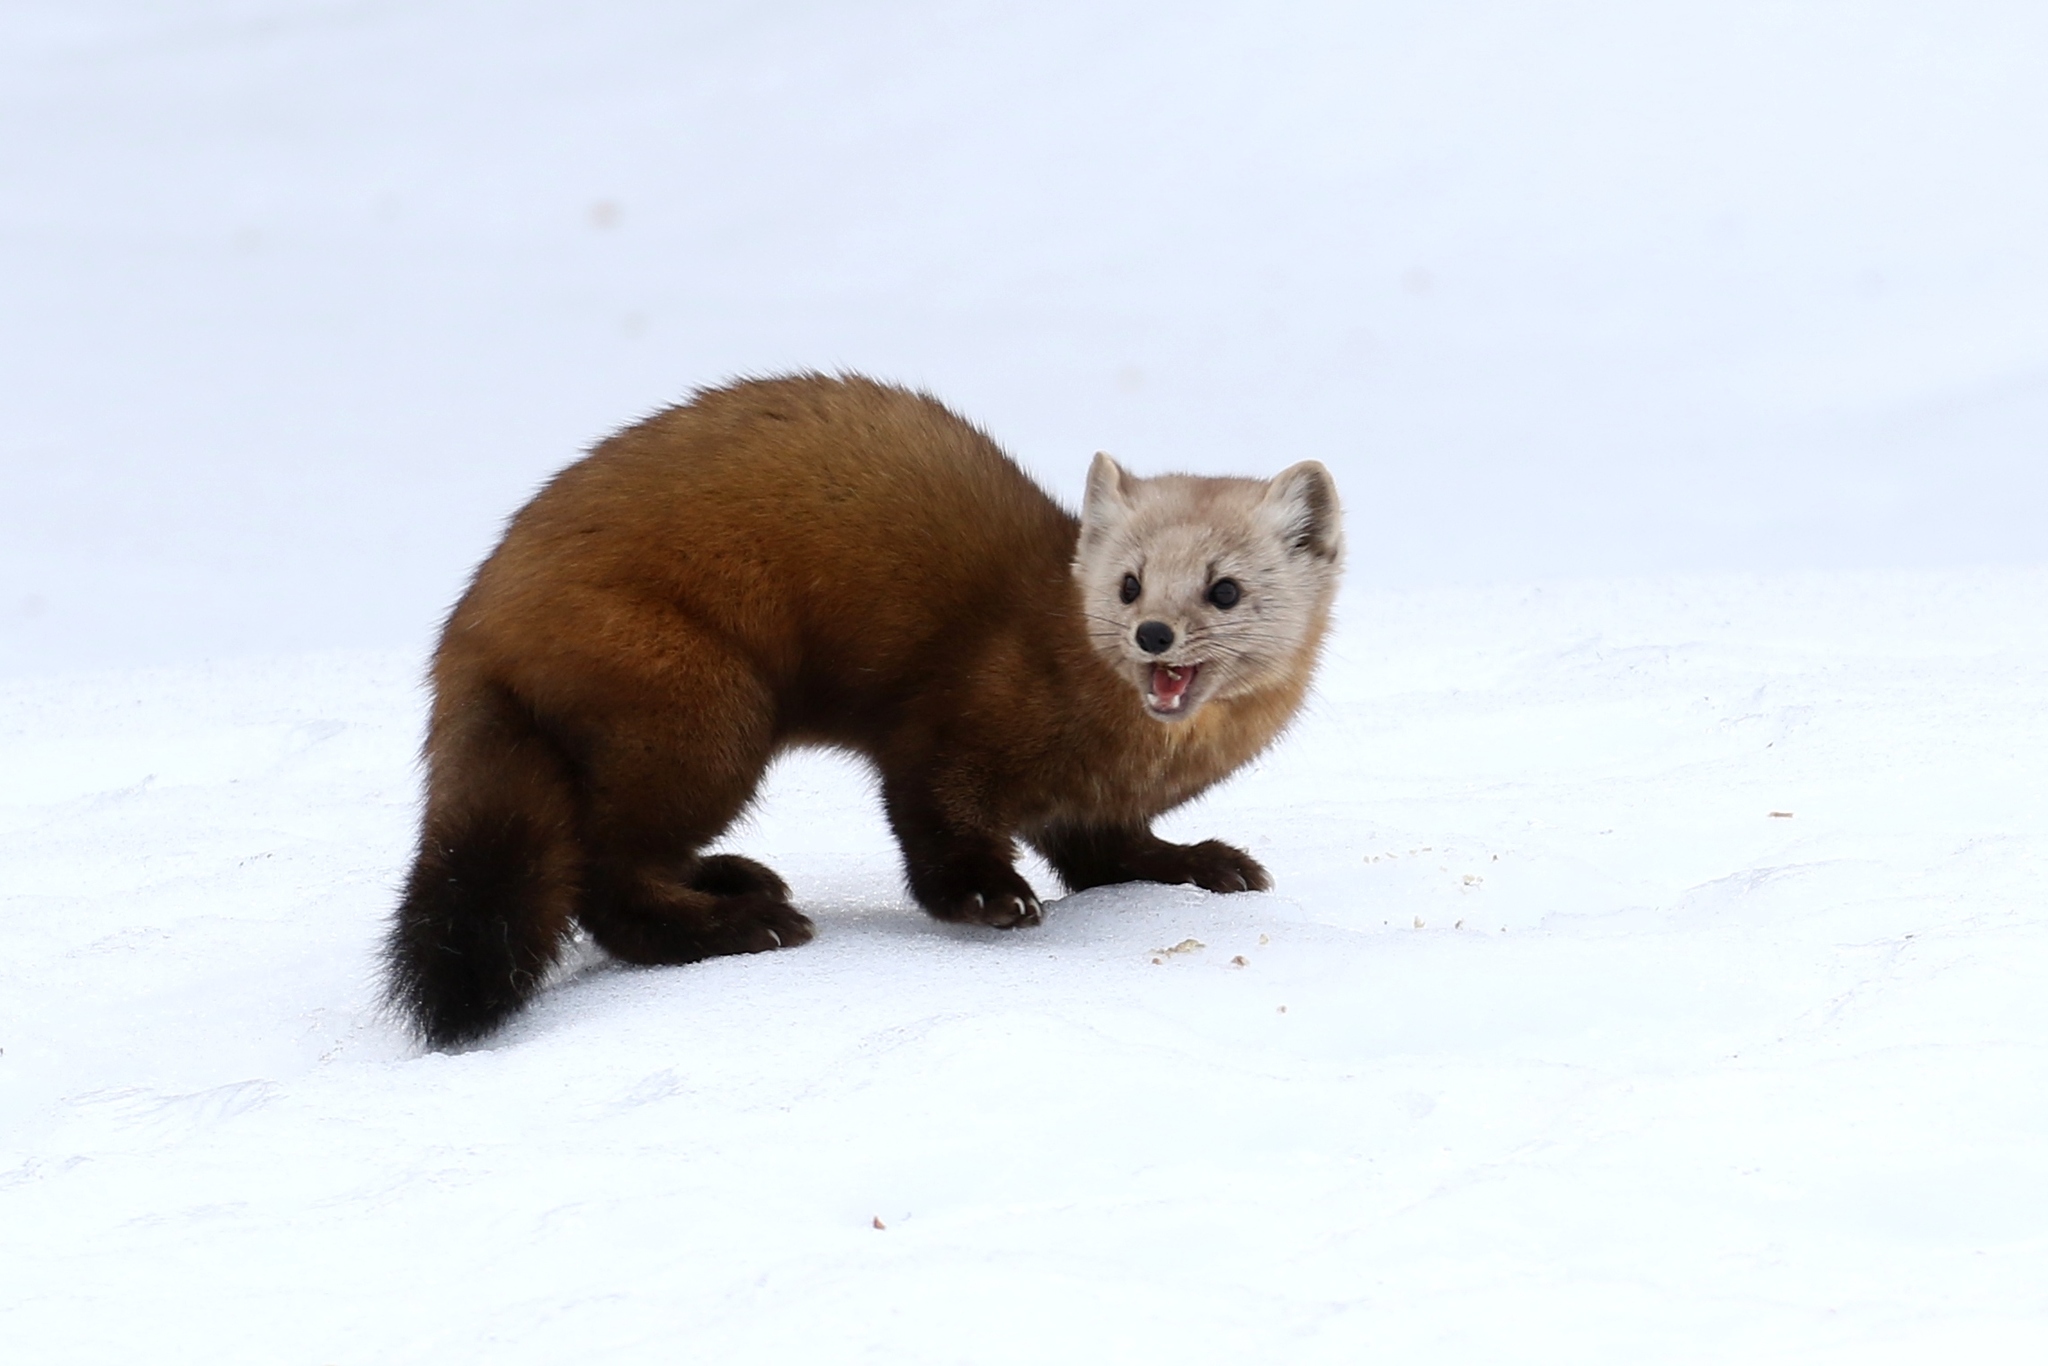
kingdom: Animalia
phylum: Chordata
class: Mammalia
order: Carnivora
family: Mustelidae
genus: Martes
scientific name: Martes americana
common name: American marten
